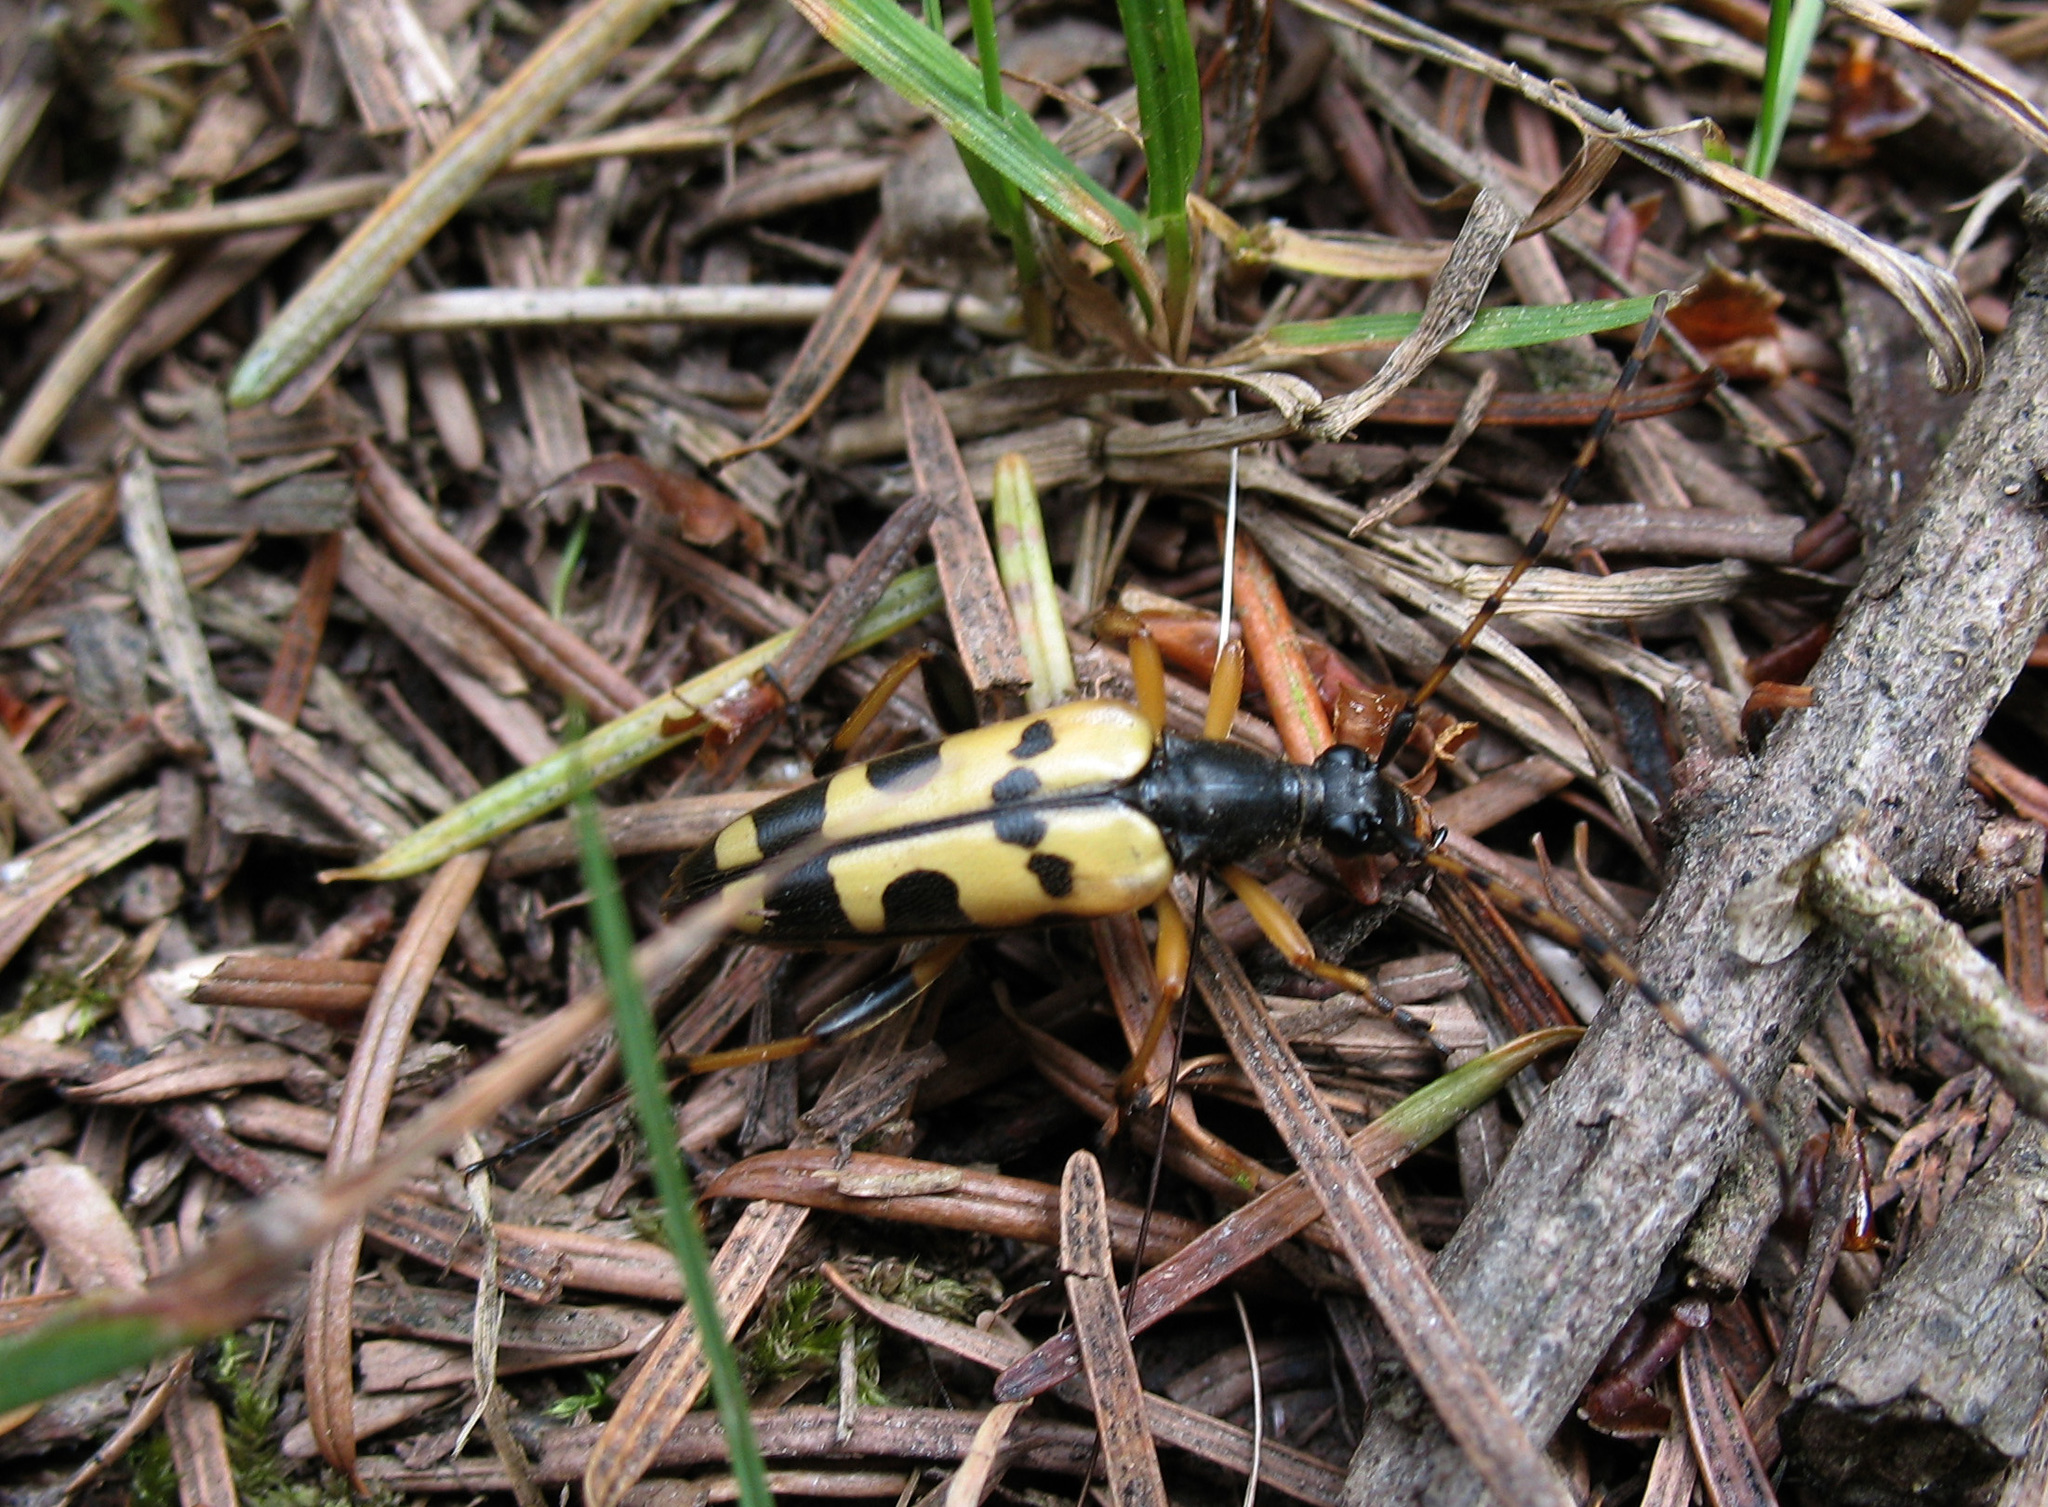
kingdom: Animalia
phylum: Arthropoda
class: Insecta
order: Coleoptera
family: Cerambycidae
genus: Rutpela
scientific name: Rutpela maculata
